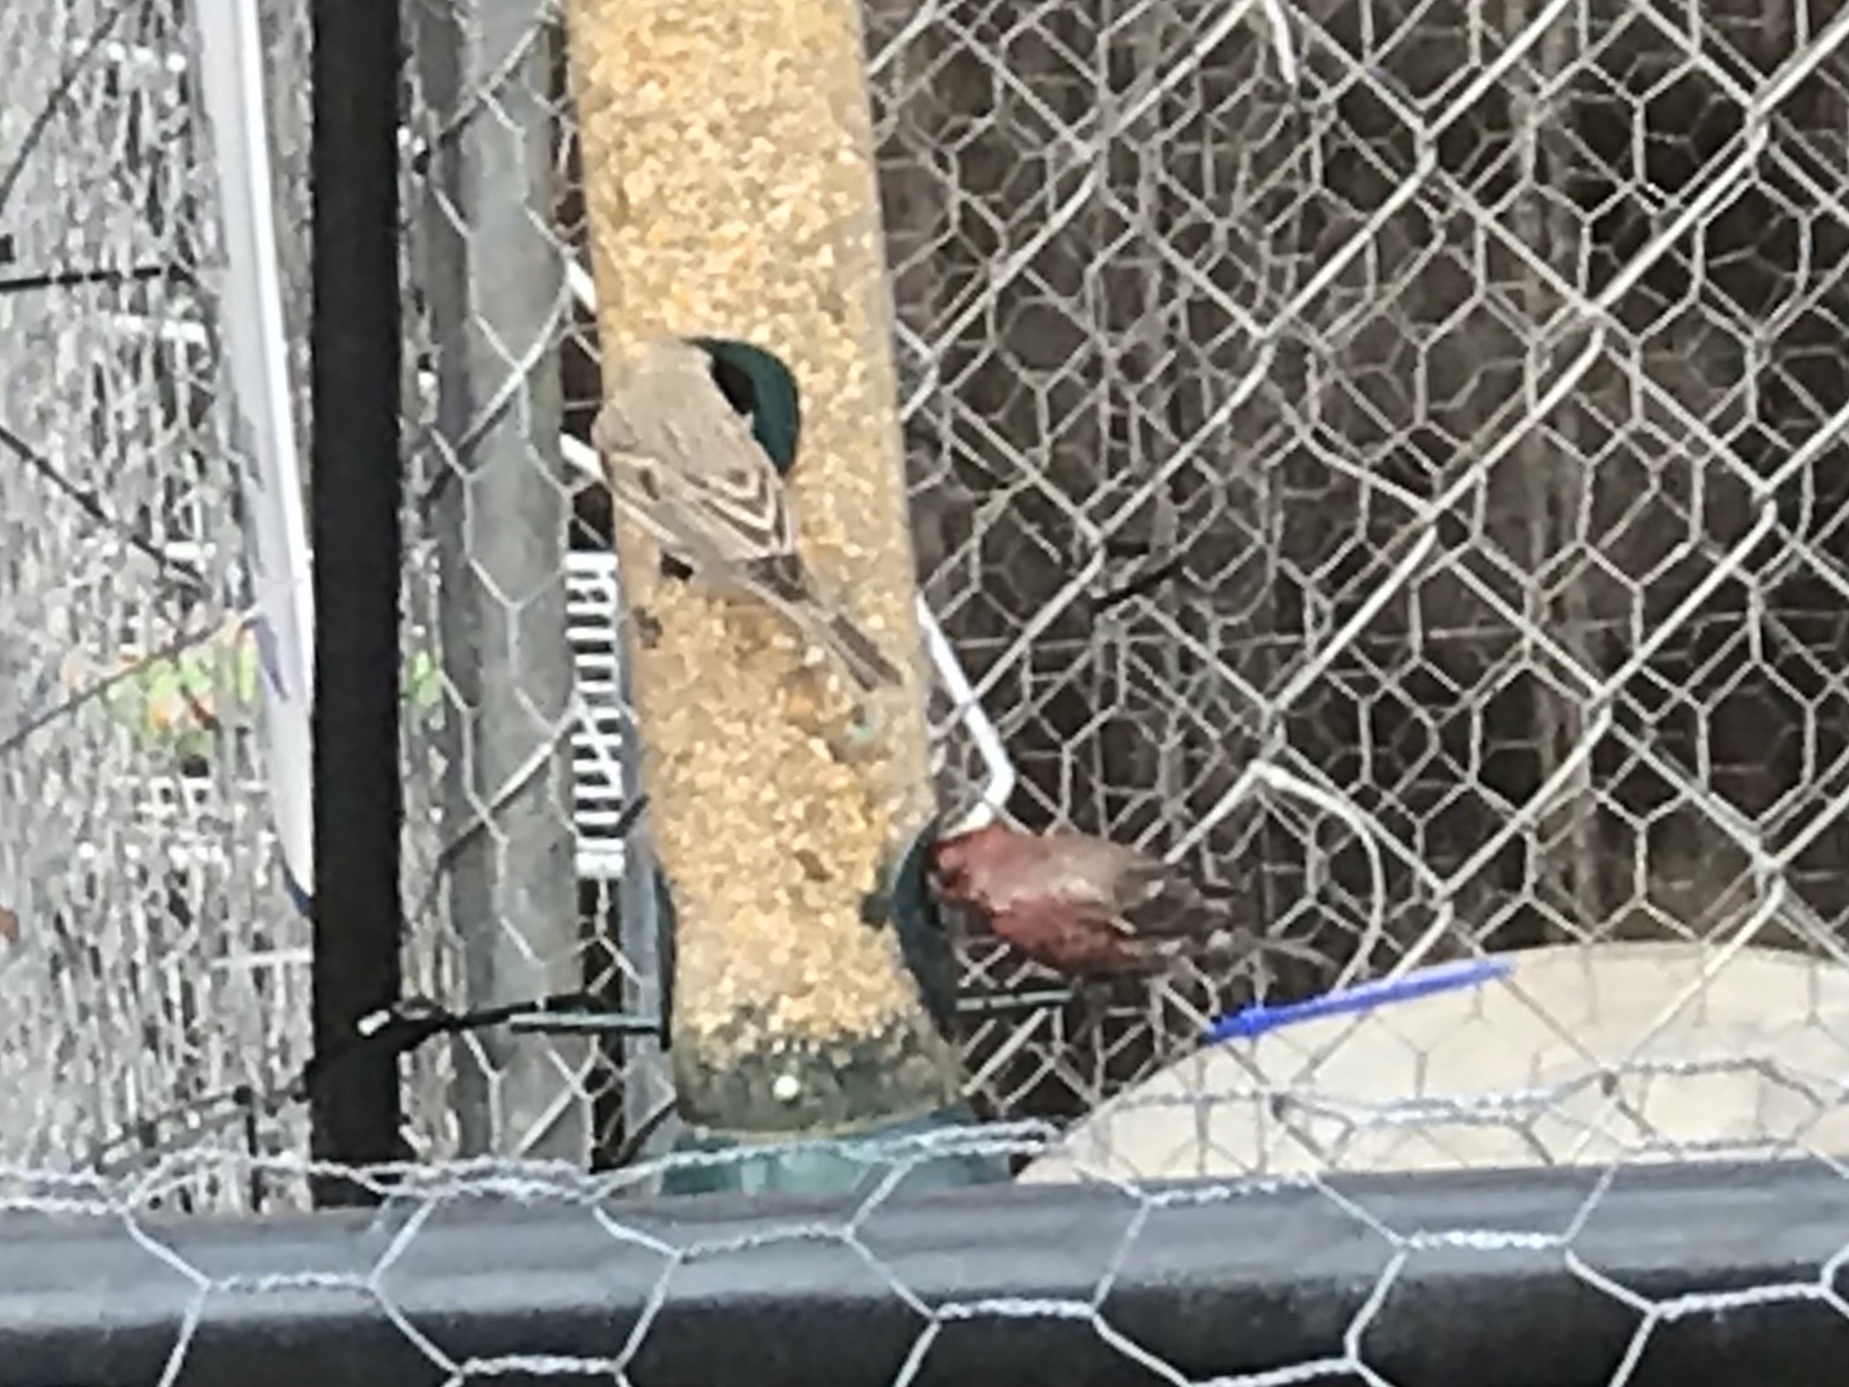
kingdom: Animalia
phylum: Chordata
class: Aves
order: Passeriformes
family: Fringillidae
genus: Haemorhous
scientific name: Haemorhous mexicanus
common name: House finch
